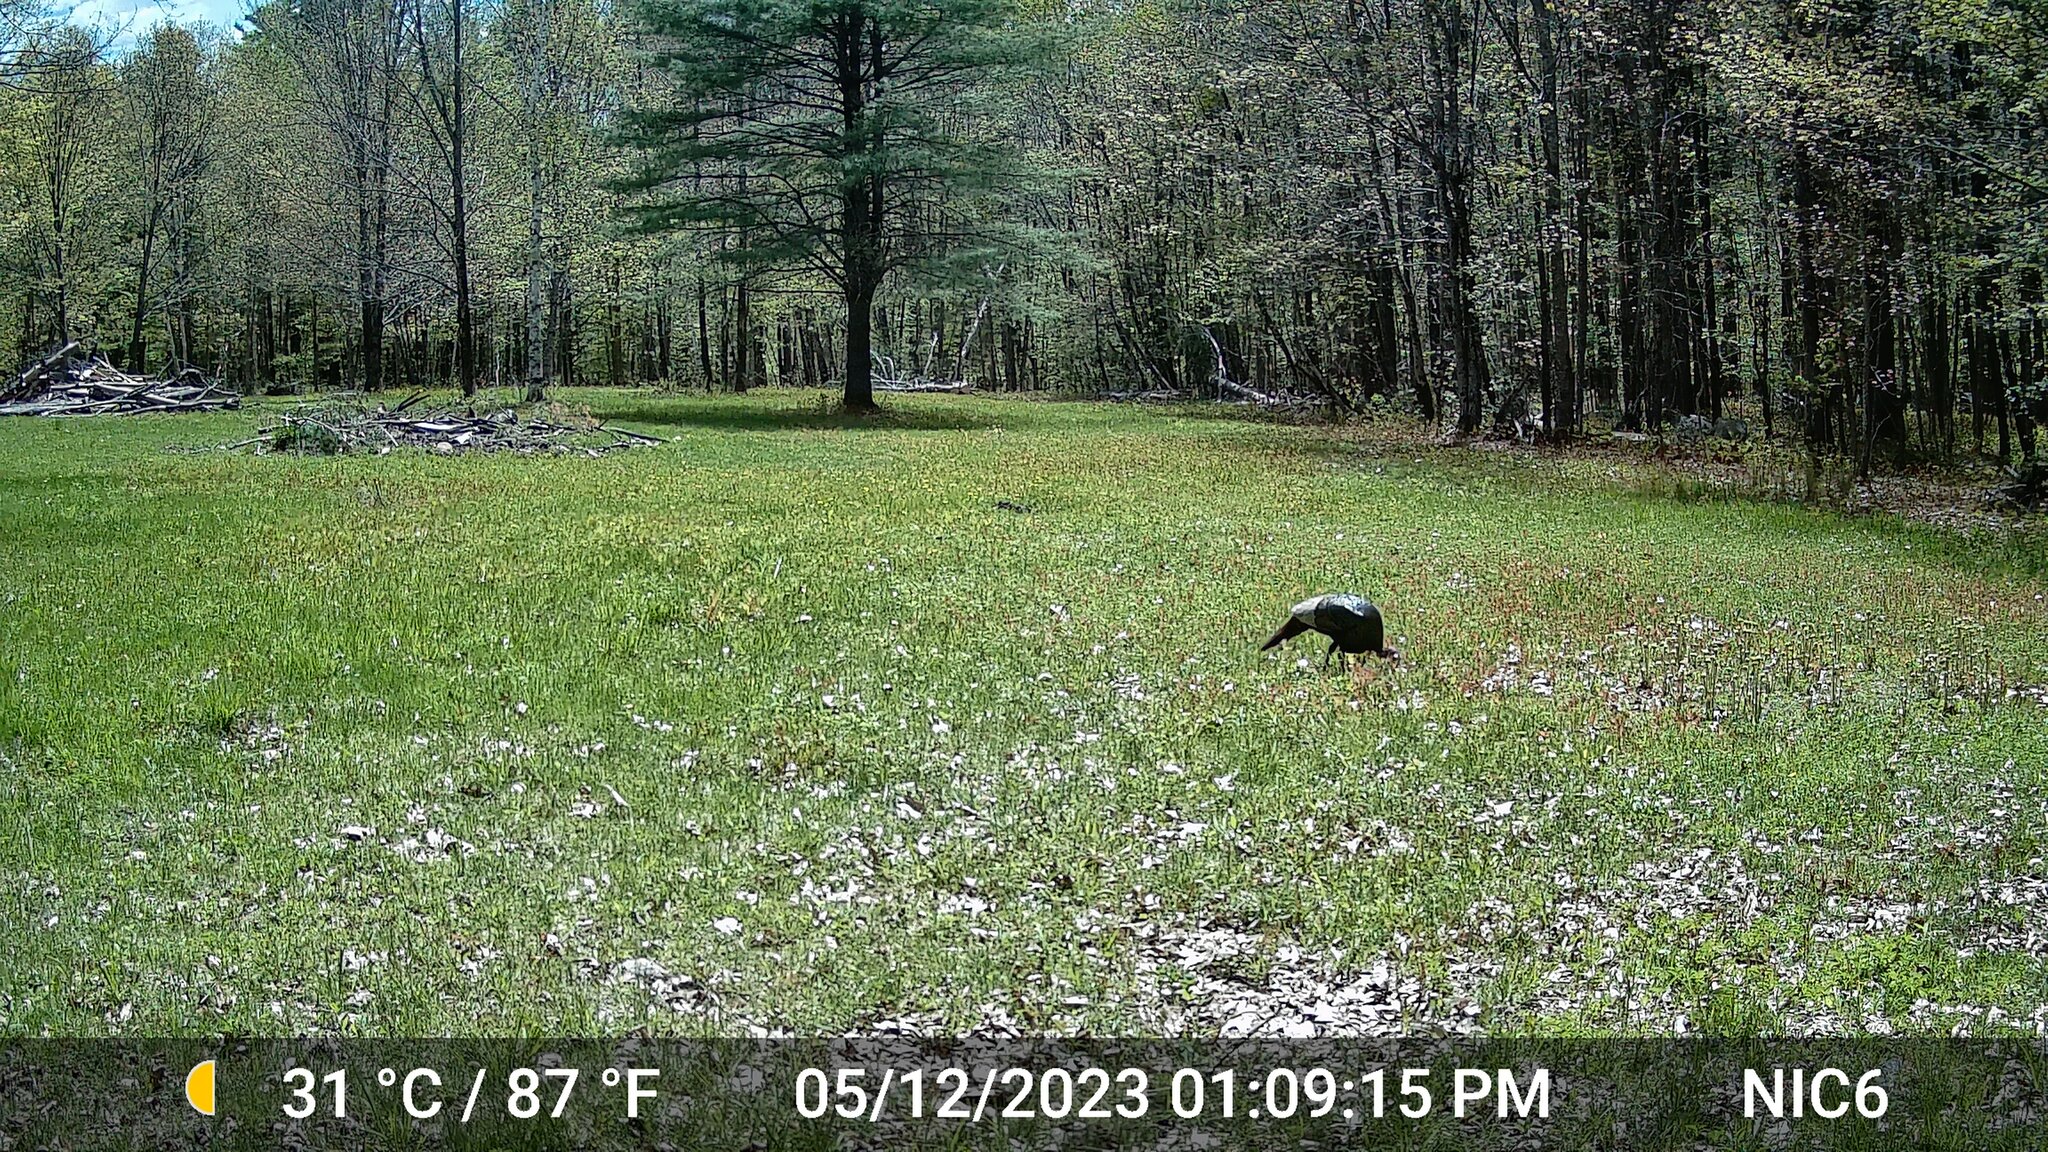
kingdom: Animalia
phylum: Chordata
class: Aves
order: Galliformes
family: Phasianidae
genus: Meleagris
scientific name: Meleagris gallopavo
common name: Wild turkey
